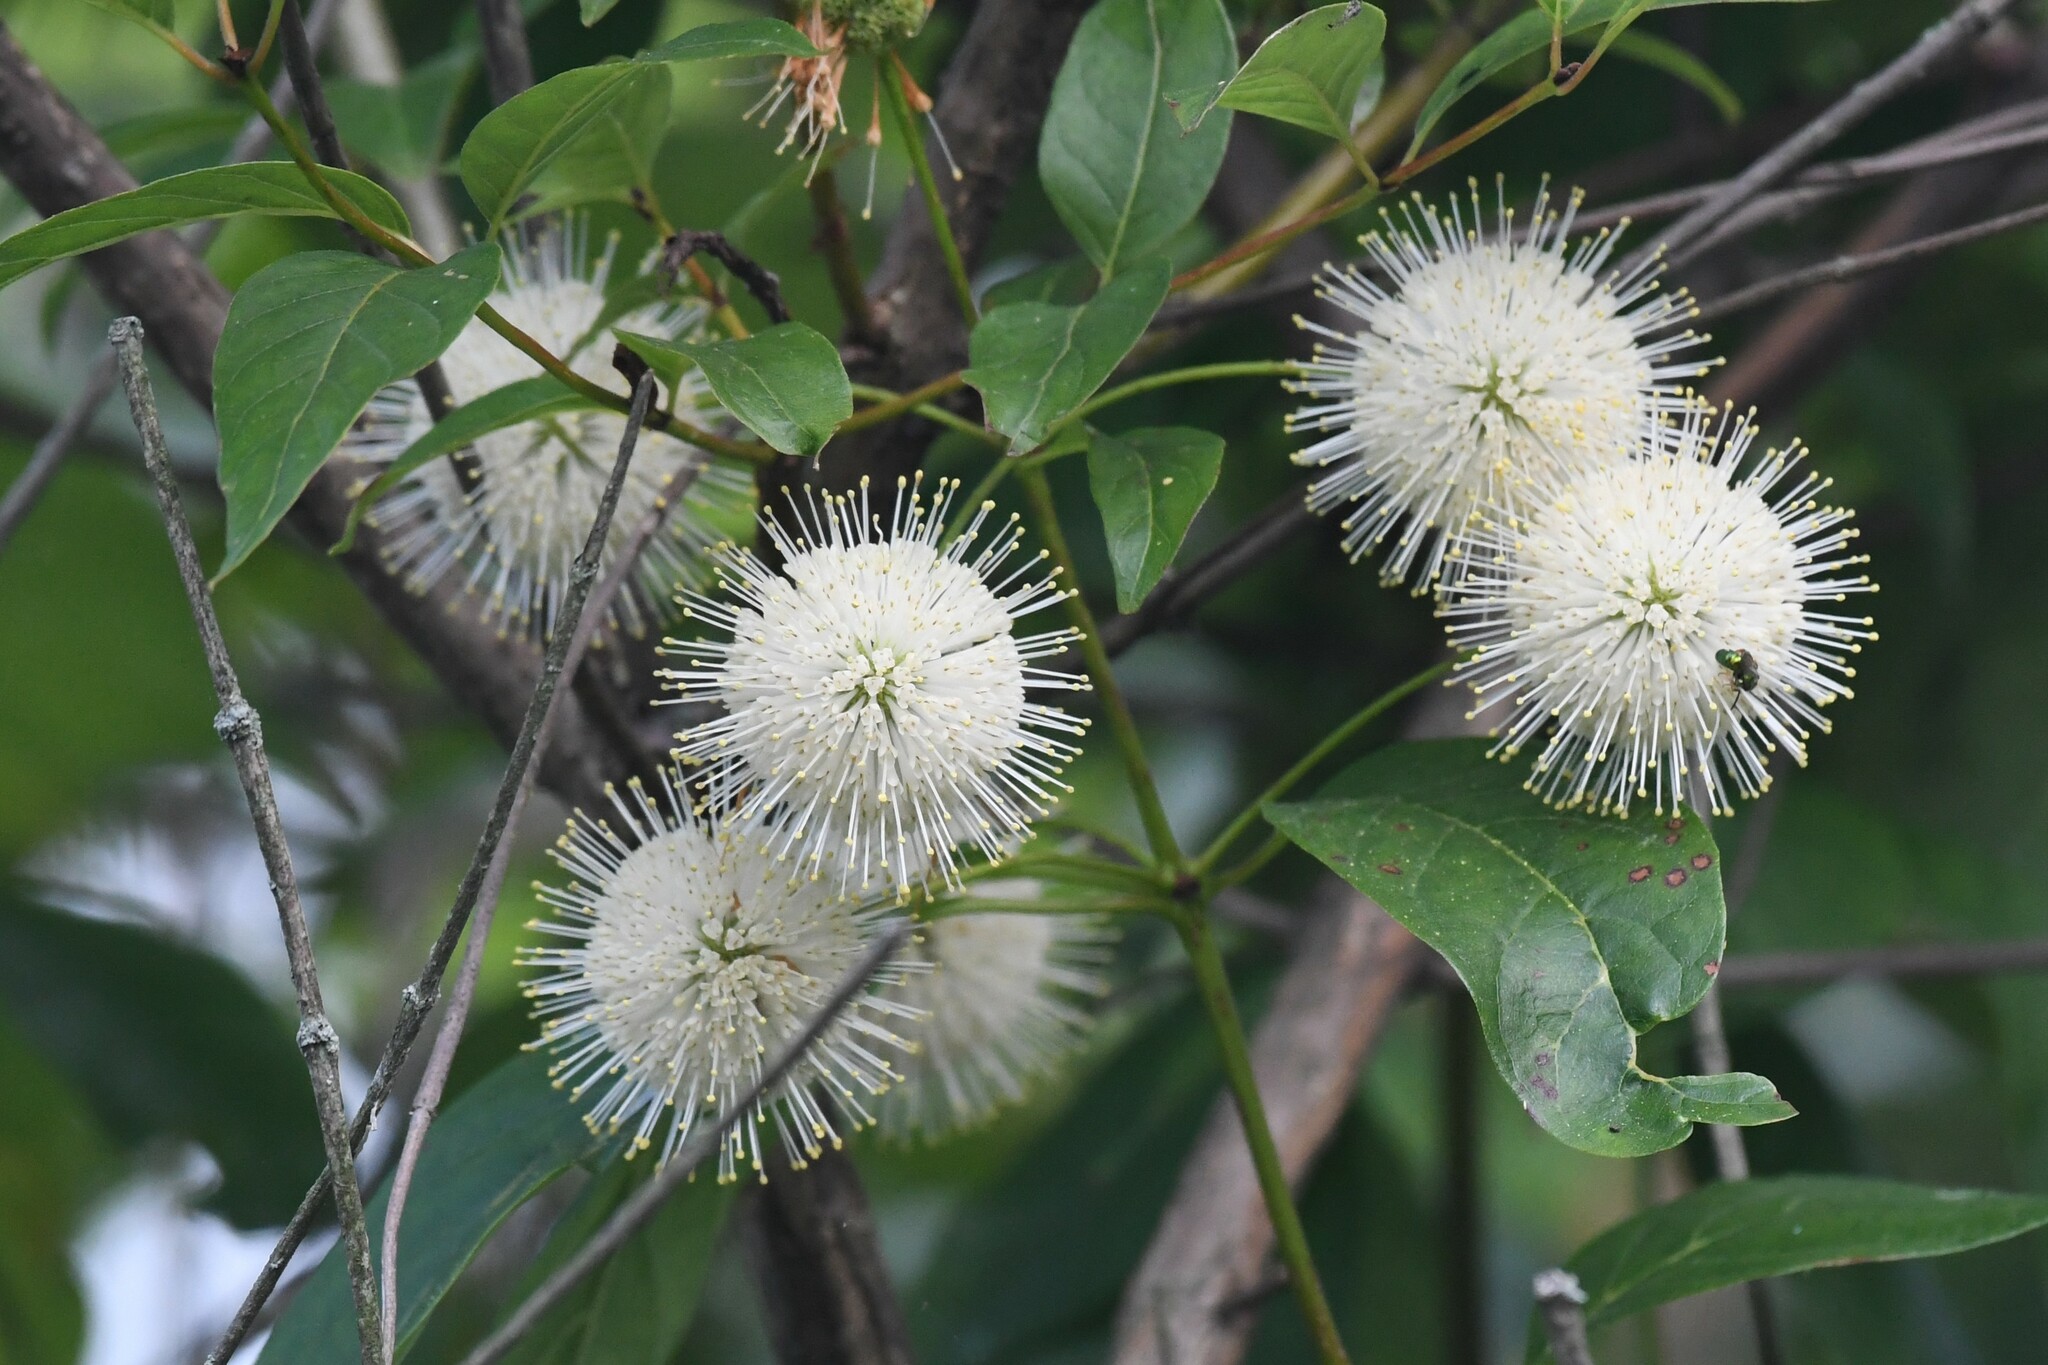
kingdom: Plantae
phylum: Tracheophyta
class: Magnoliopsida
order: Gentianales
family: Rubiaceae
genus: Cephalanthus
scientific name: Cephalanthus occidentalis
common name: Button-willow
